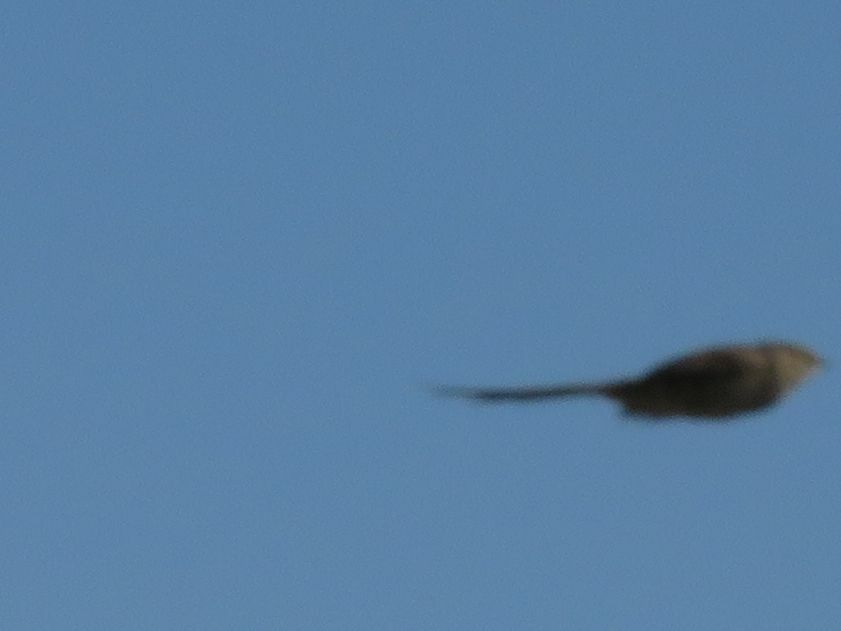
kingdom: Animalia
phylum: Chordata
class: Aves
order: Passeriformes
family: Furnariidae
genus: Schoeniophylax
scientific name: Schoeniophylax phryganophilus
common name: Chotoy spinetail
